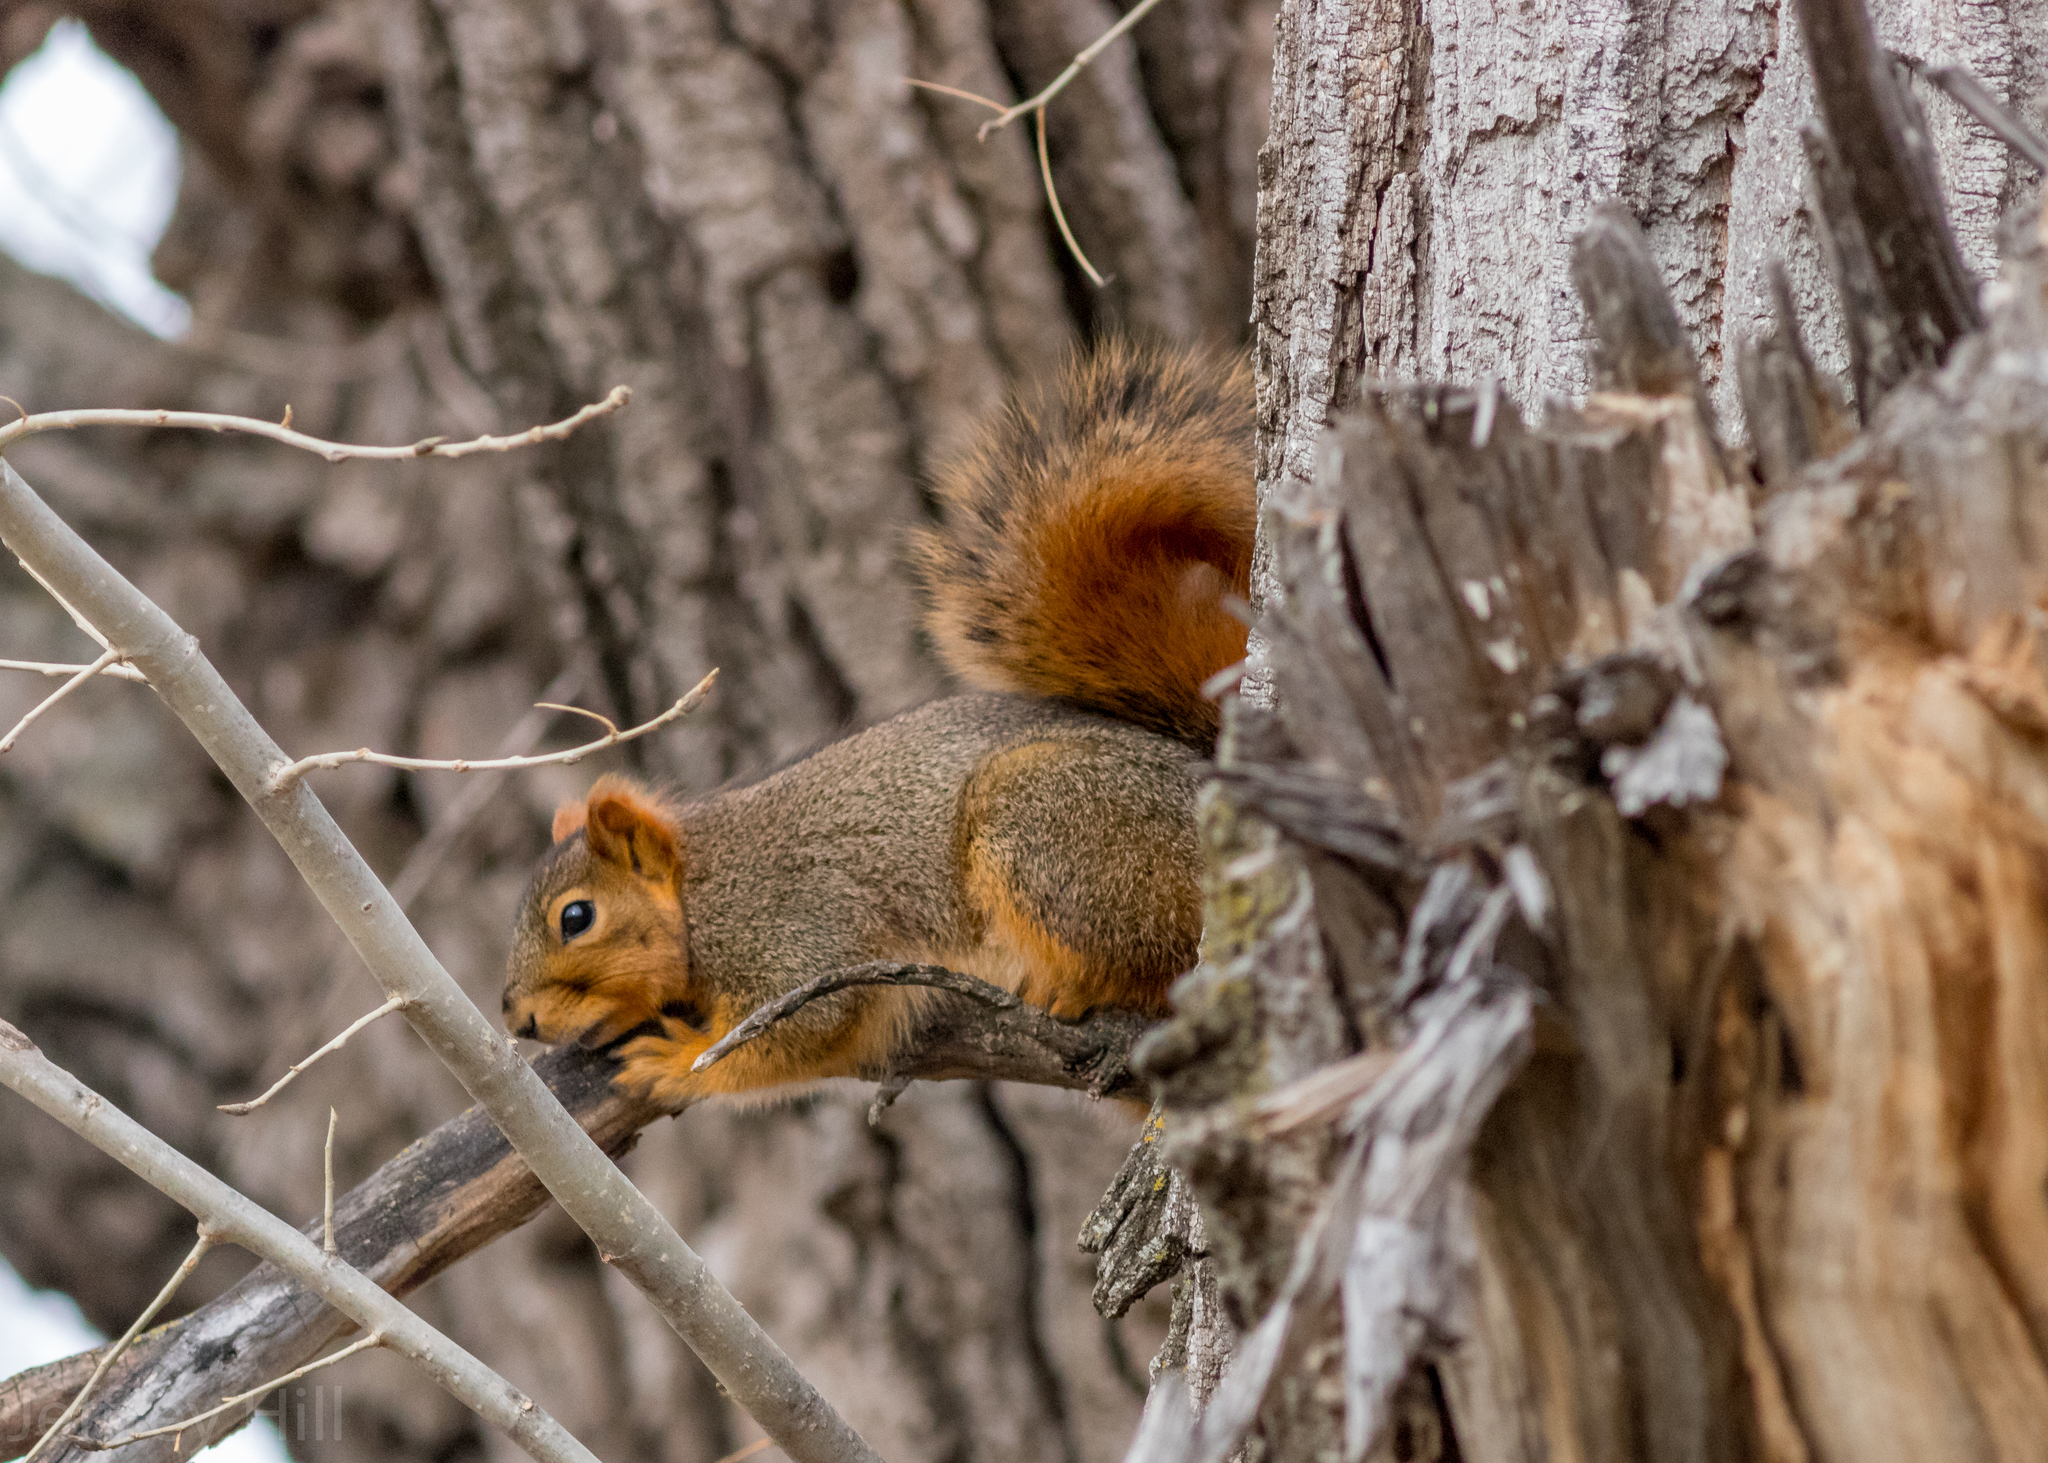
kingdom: Animalia
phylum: Chordata
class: Mammalia
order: Rodentia
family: Sciuridae
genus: Sciurus
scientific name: Sciurus niger
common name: Fox squirrel
